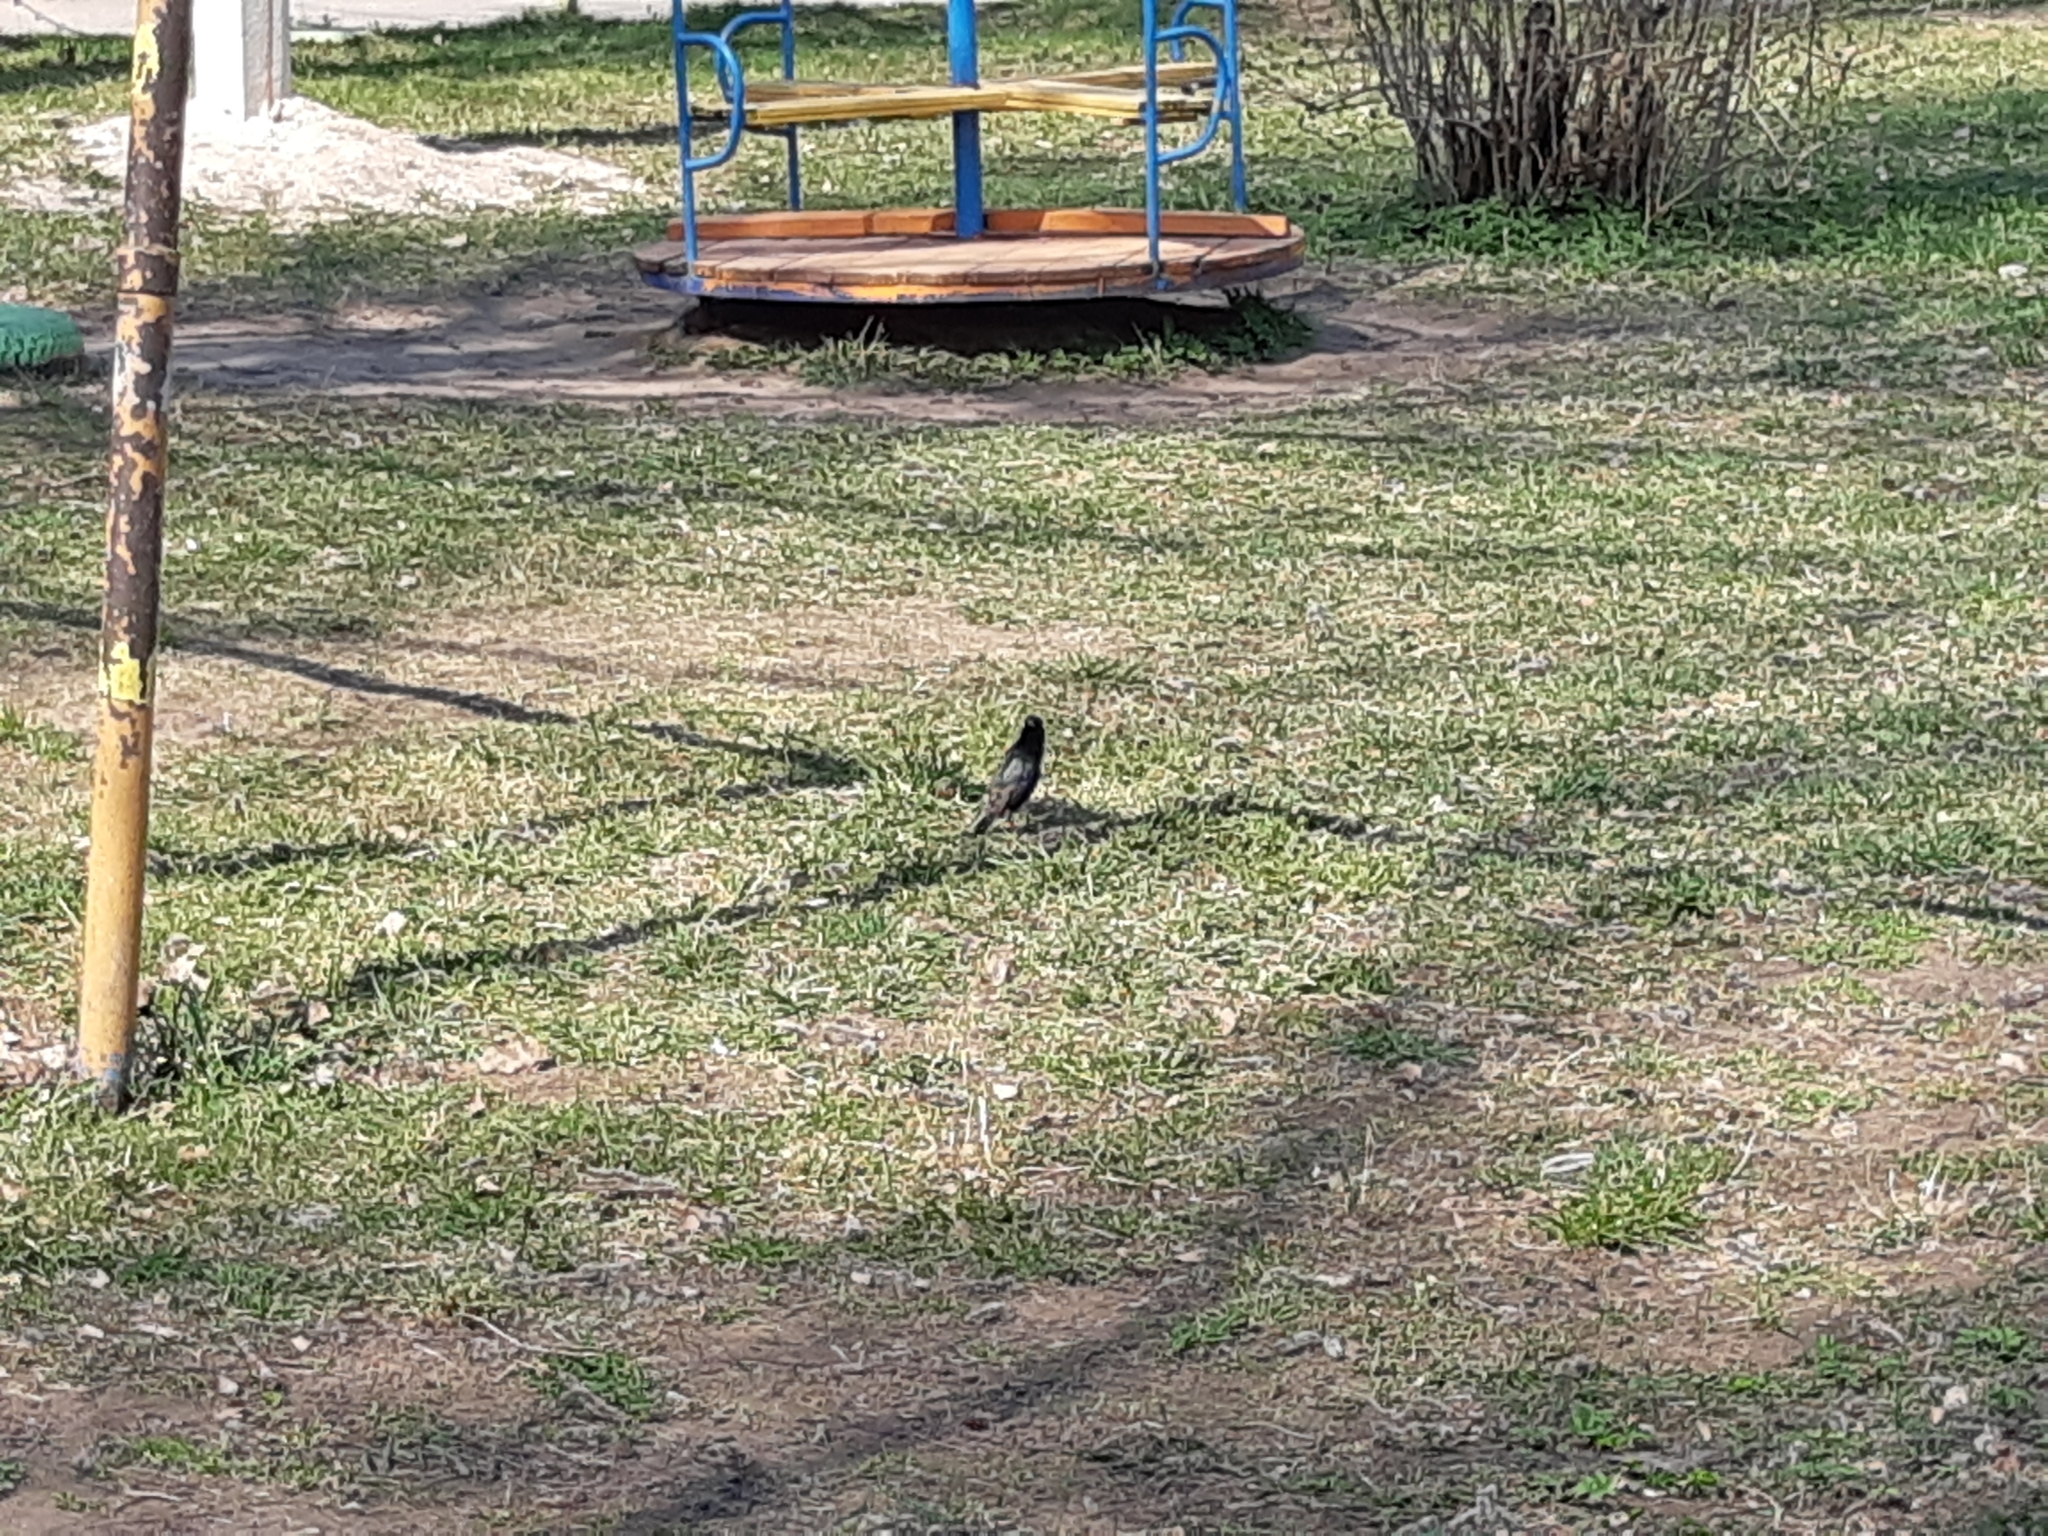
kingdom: Animalia
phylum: Chordata
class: Aves
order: Passeriformes
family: Sturnidae
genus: Sturnus
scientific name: Sturnus vulgaris
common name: Common starling
